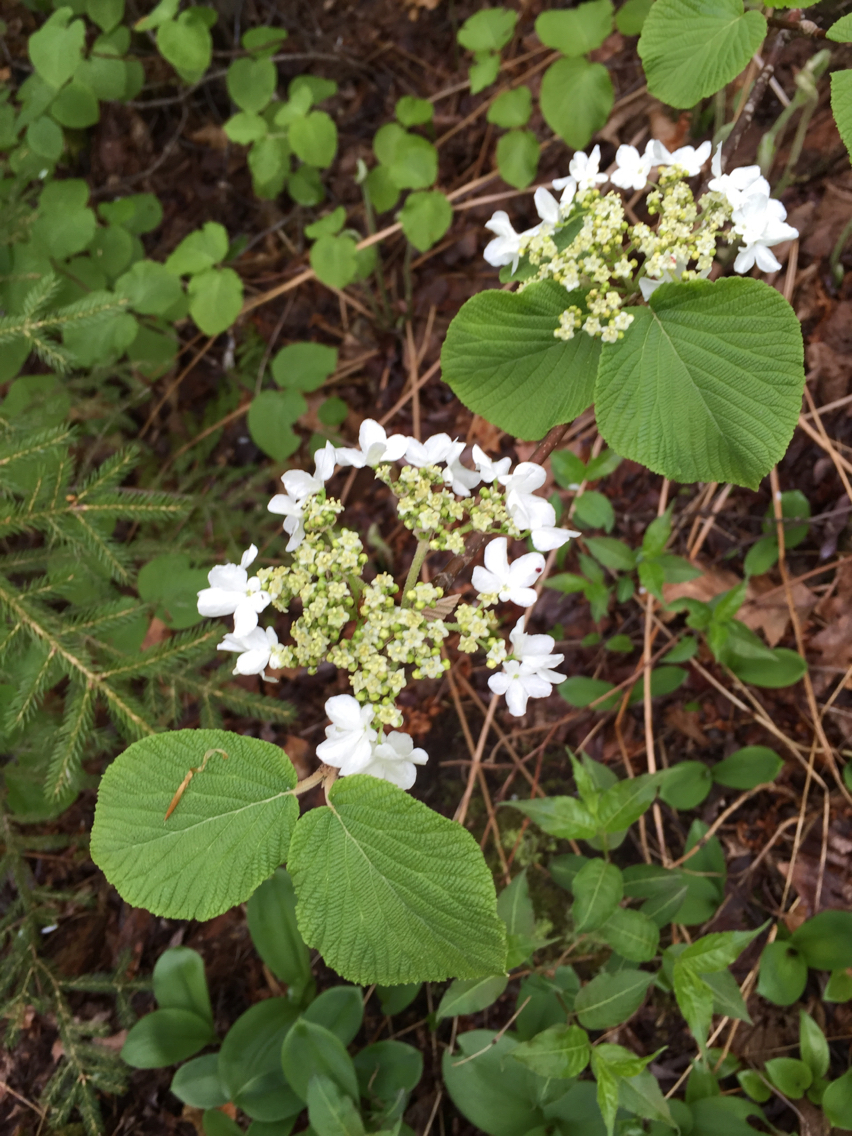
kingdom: Plantae
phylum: Tracheophyta
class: Magnoliopsida
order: Dipsacales
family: Viburnaceae
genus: Viburnum
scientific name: Viburnum lantanoides
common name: Hobblebush
